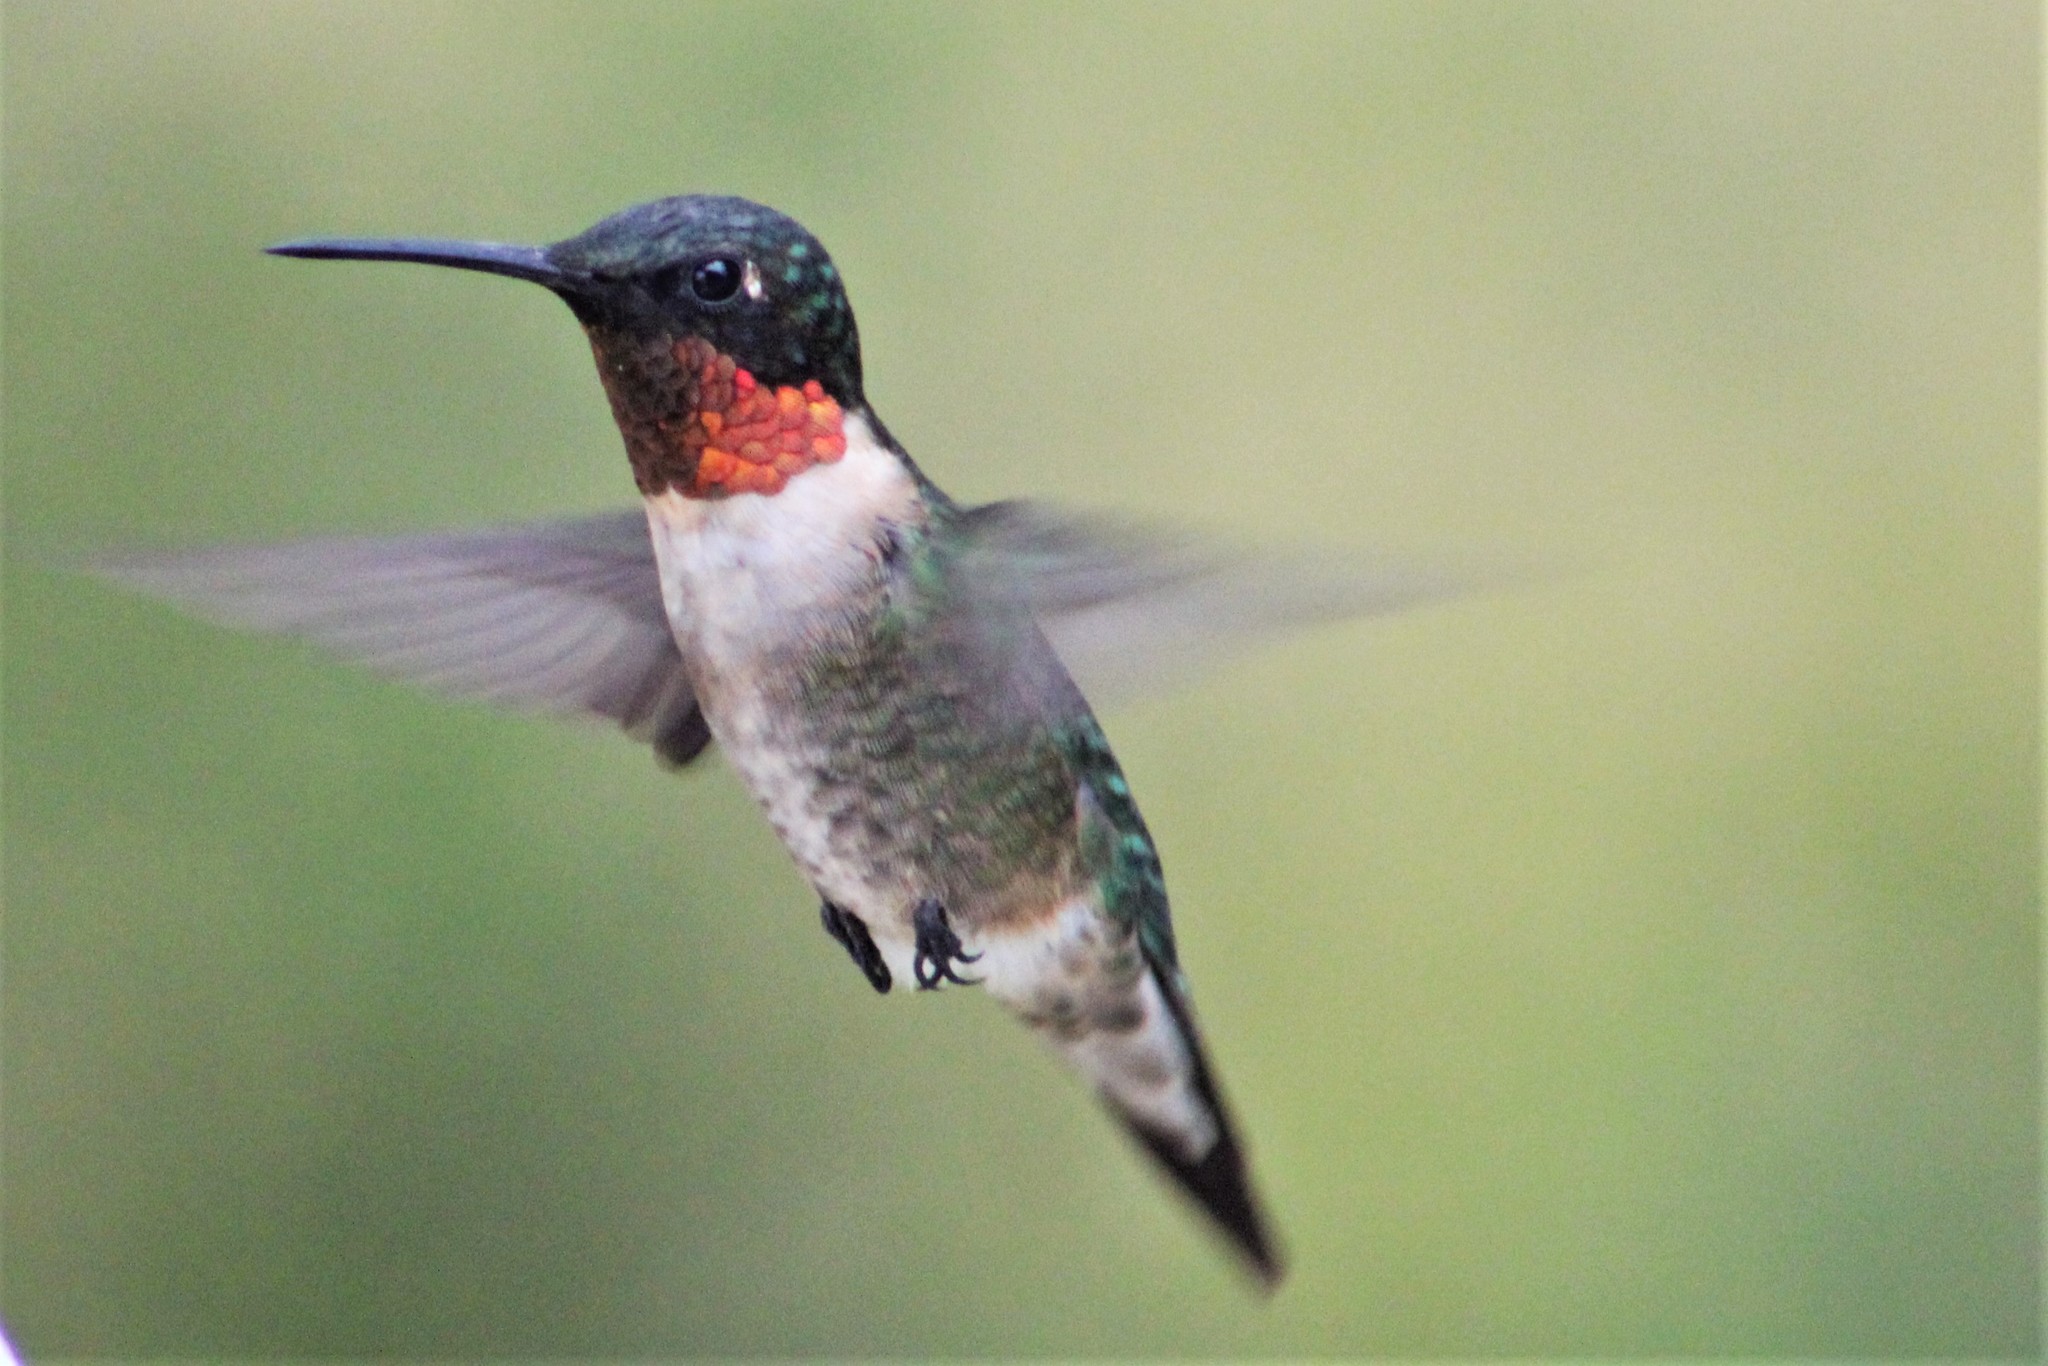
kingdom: Animalia
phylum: Chordata
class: Aves
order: Apodiformes
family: Trochilidae
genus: Archilochus
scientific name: Archilochus colubris
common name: Ruby-throated hummingbird
